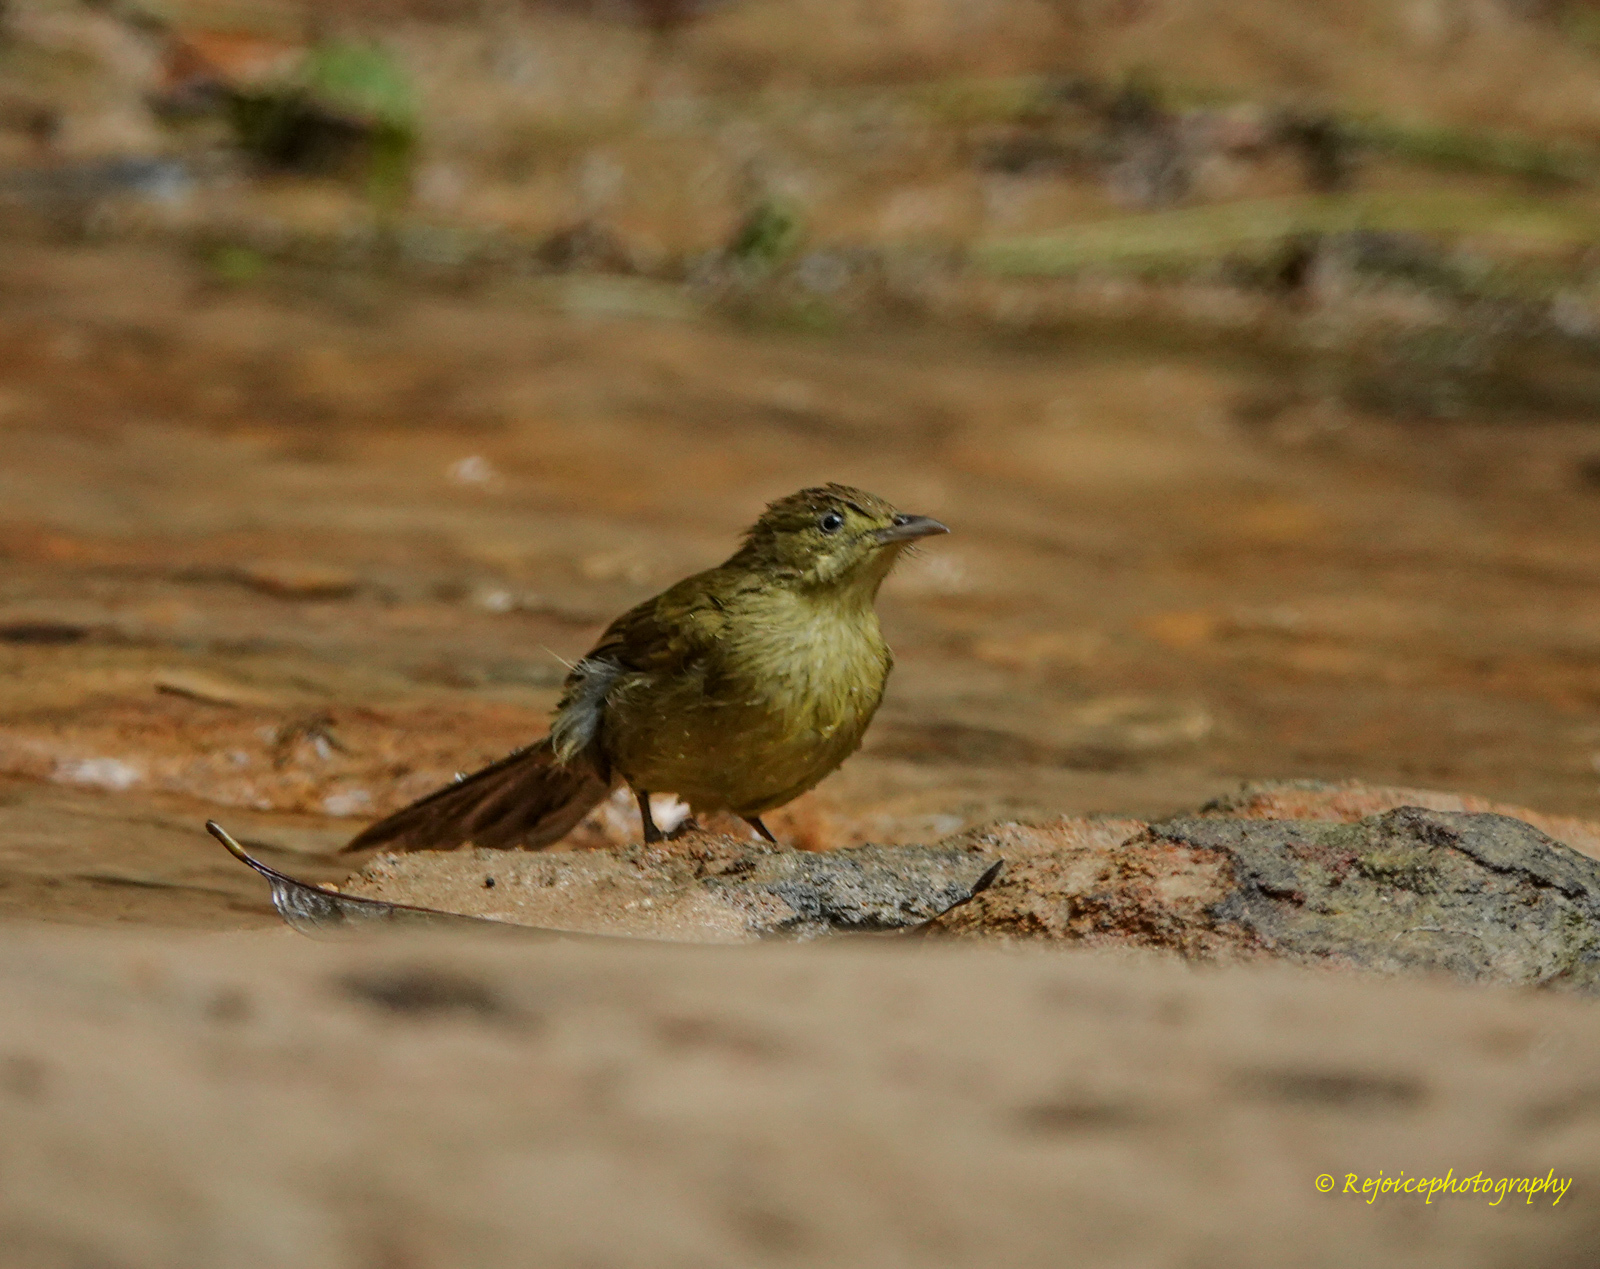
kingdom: Animalia
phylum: Chordata
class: Aves
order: Passeriformes
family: Pycnonotidae
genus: Iole
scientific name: Iole virescens
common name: Olive bulbul
